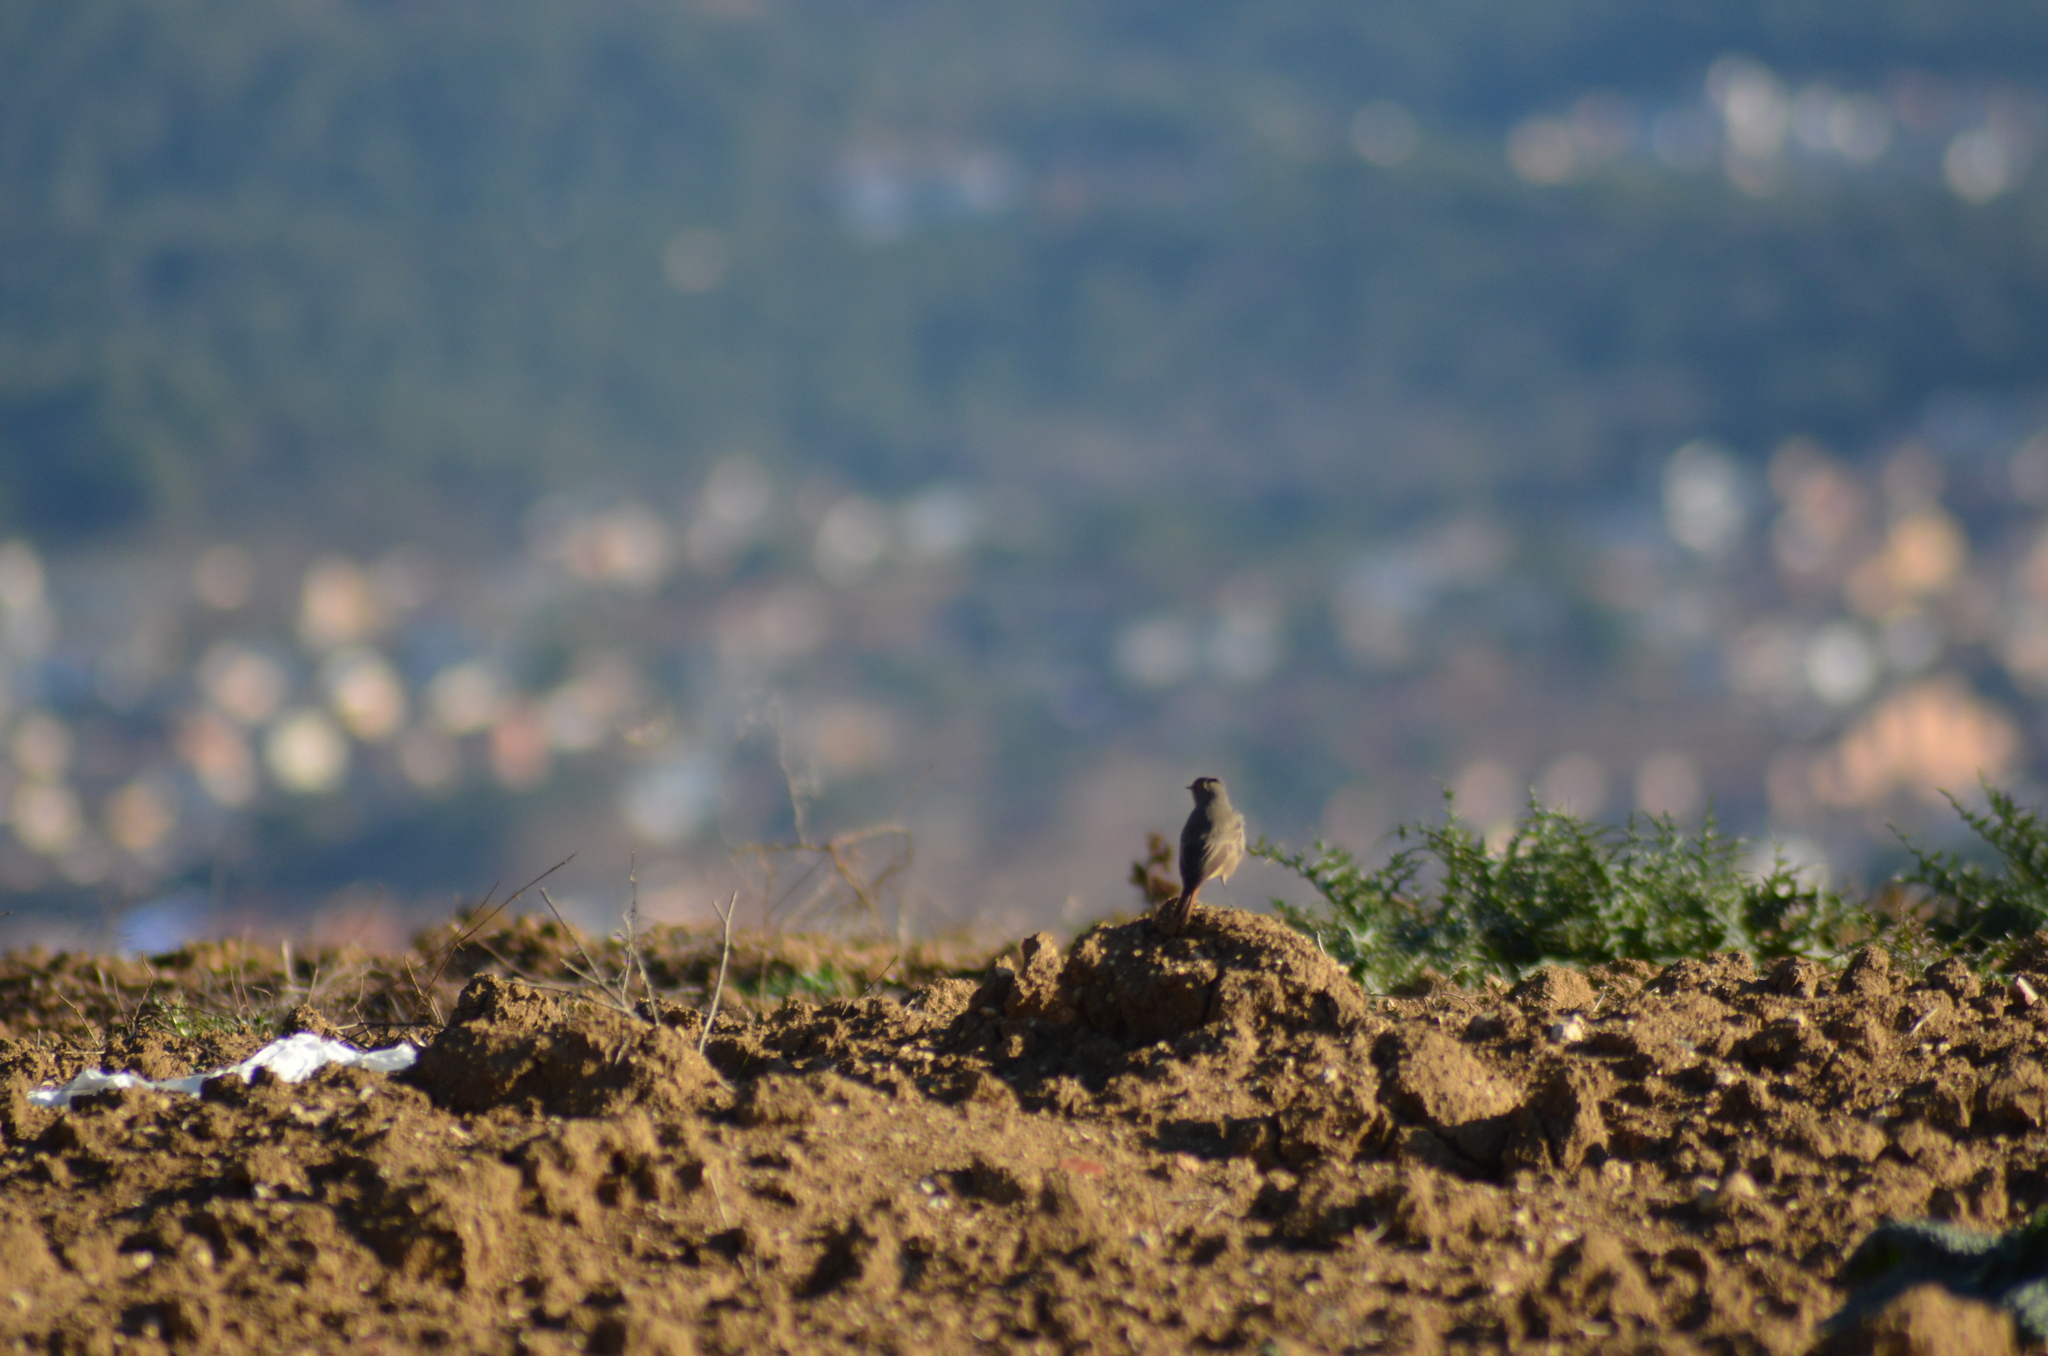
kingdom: Animalia
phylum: Chordata
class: Aves
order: Passeriformes
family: Muscicapidae
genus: Phoenicurus
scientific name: Phoenicurus ochruros
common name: Black redstart
